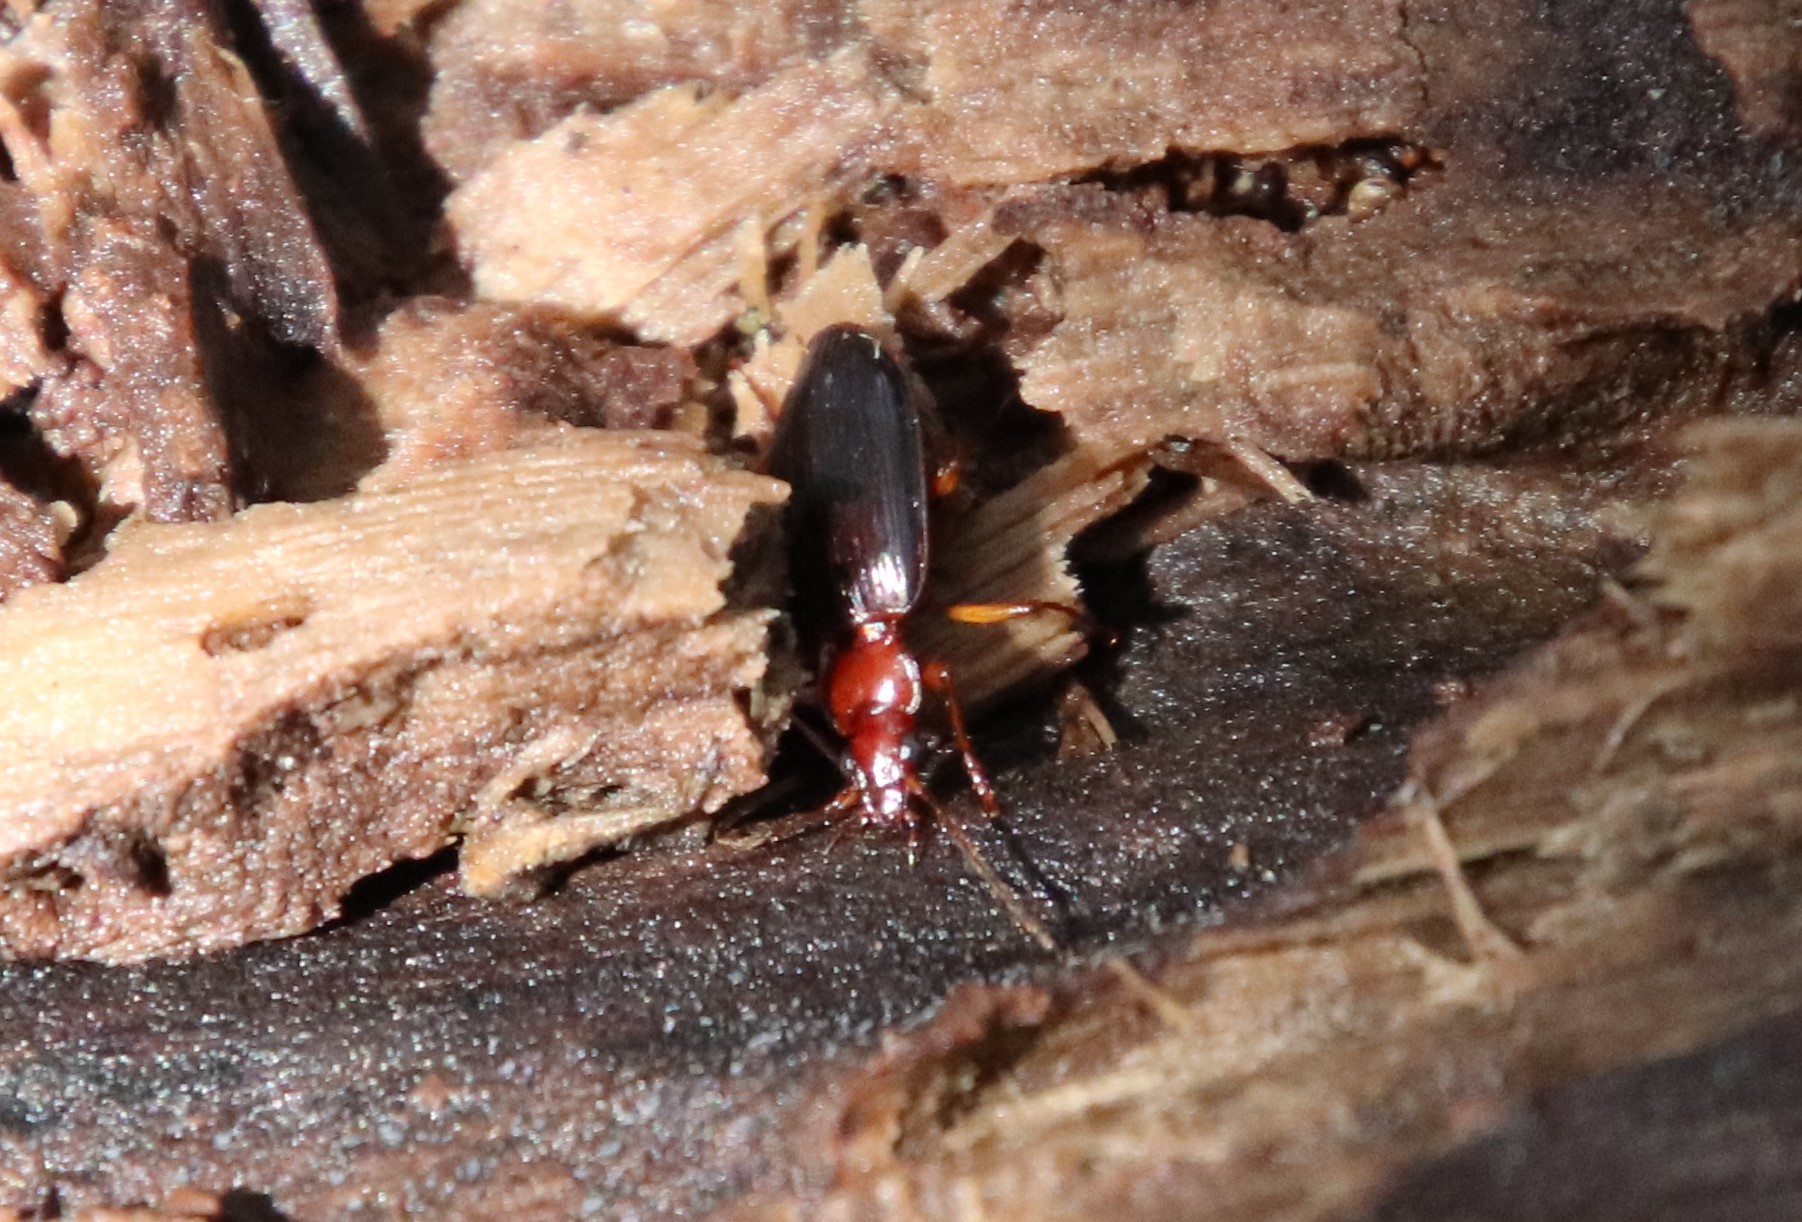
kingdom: Animalia
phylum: Arthropoda
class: Insecta
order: Coleoptera
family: Carabidae
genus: Platynus
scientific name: Platynus brunneomarginatus
